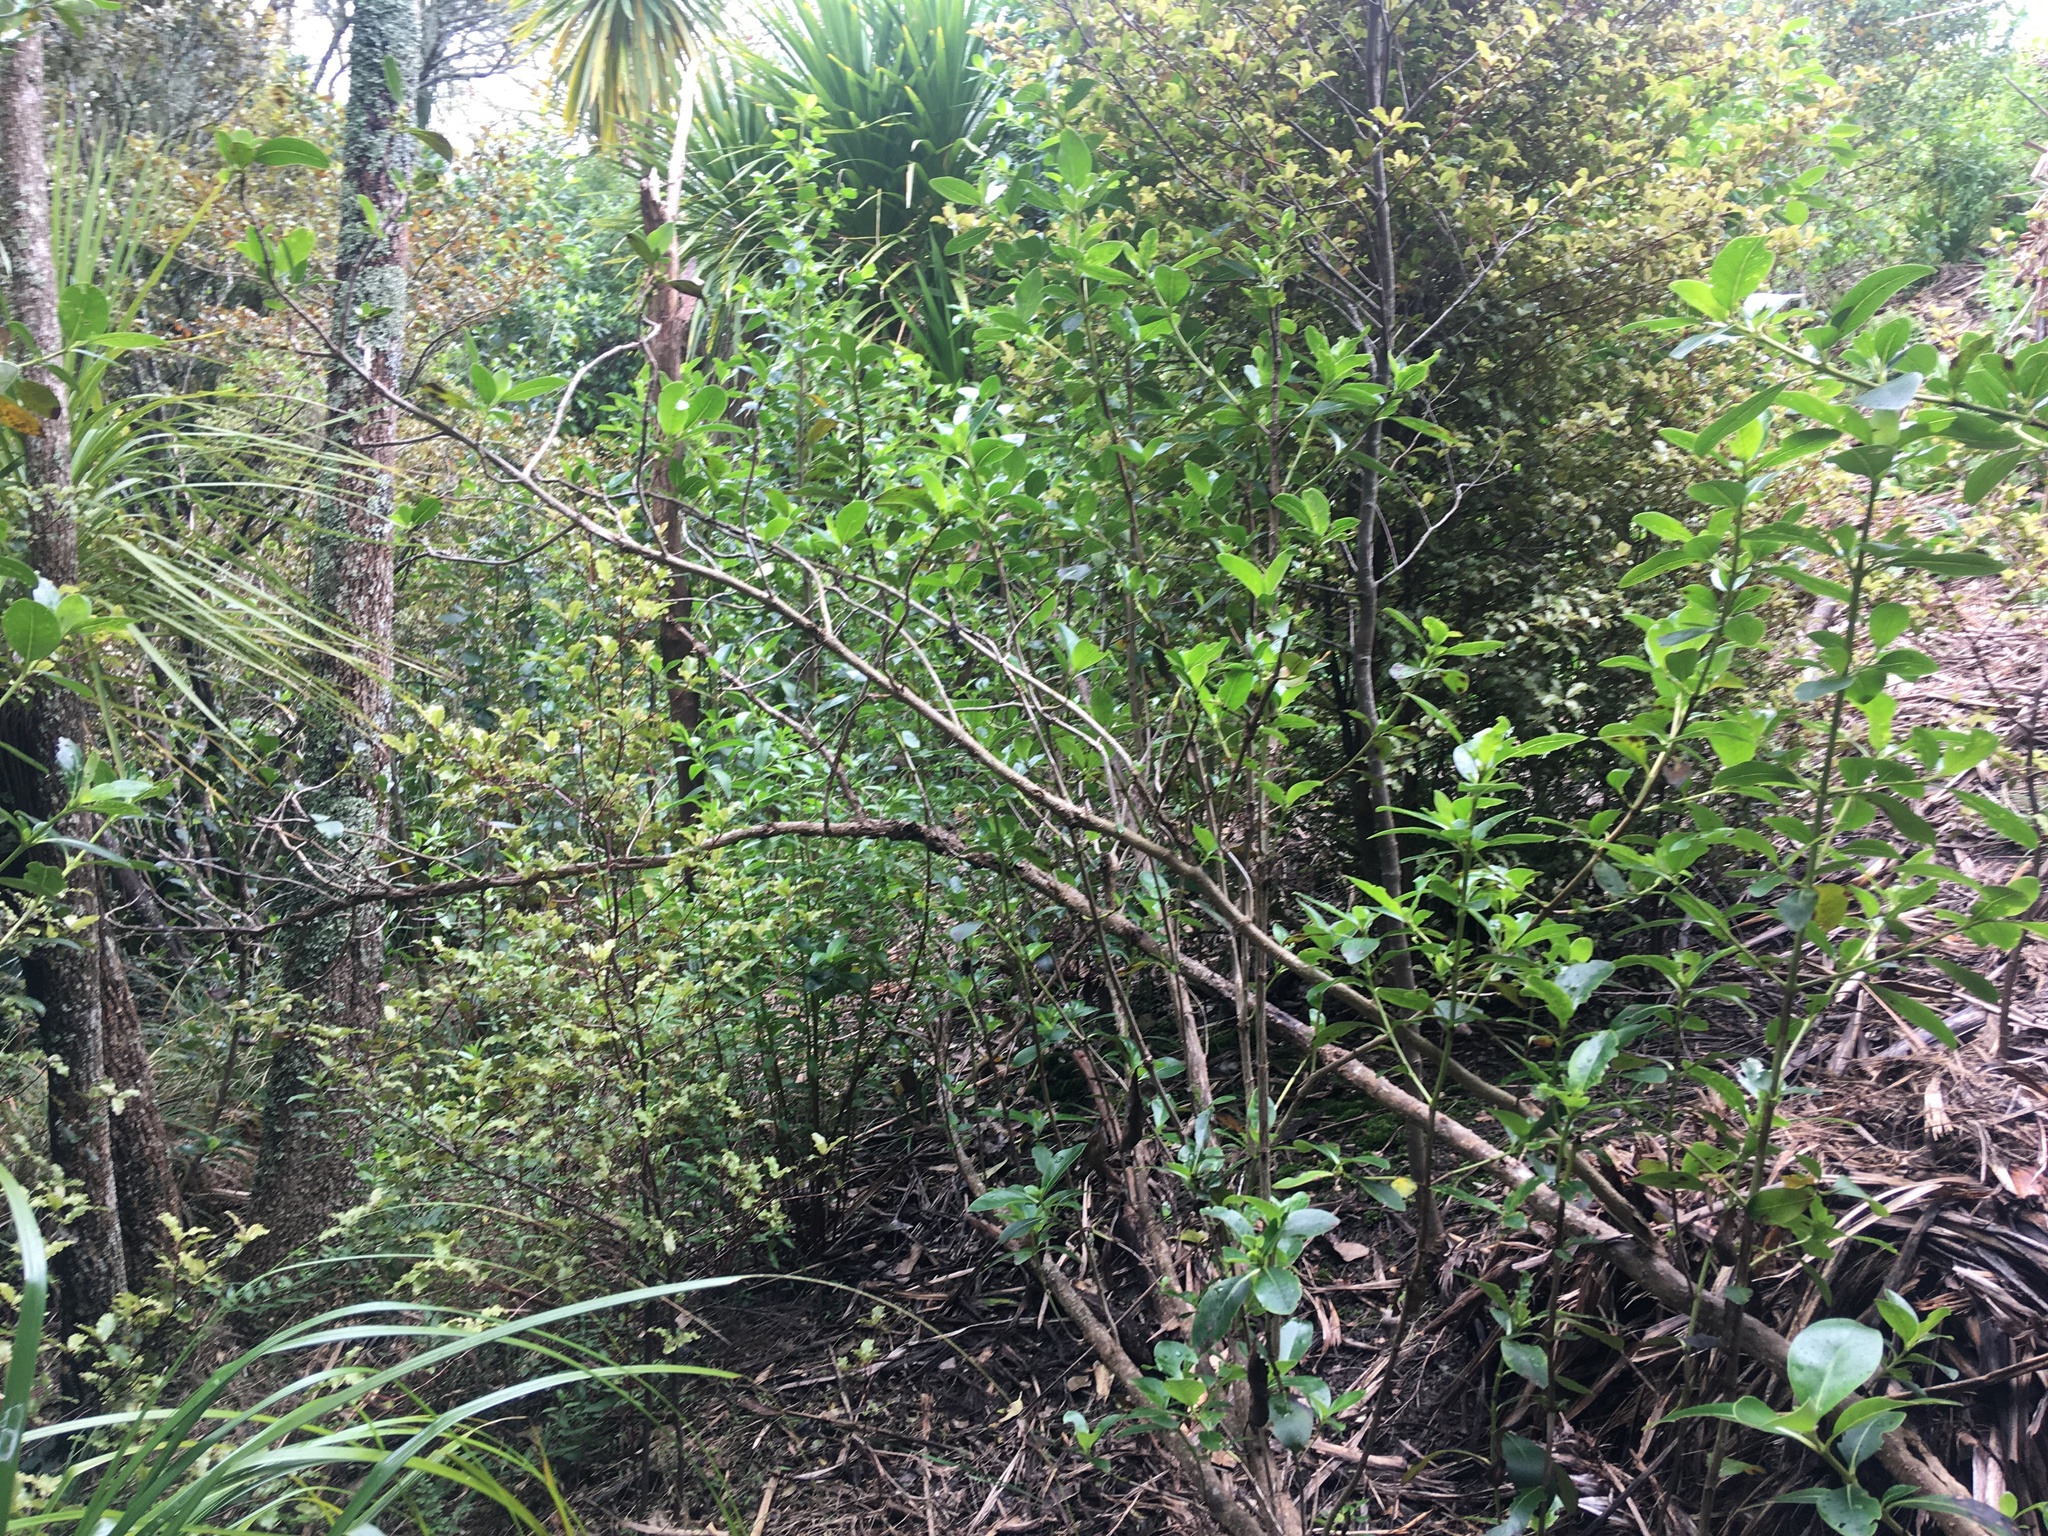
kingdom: Plantae
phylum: Tracheophyta
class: Magnoliopsida
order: Gentianales
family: Rubiaceae
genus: Coprosma
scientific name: Coprosma robusta
